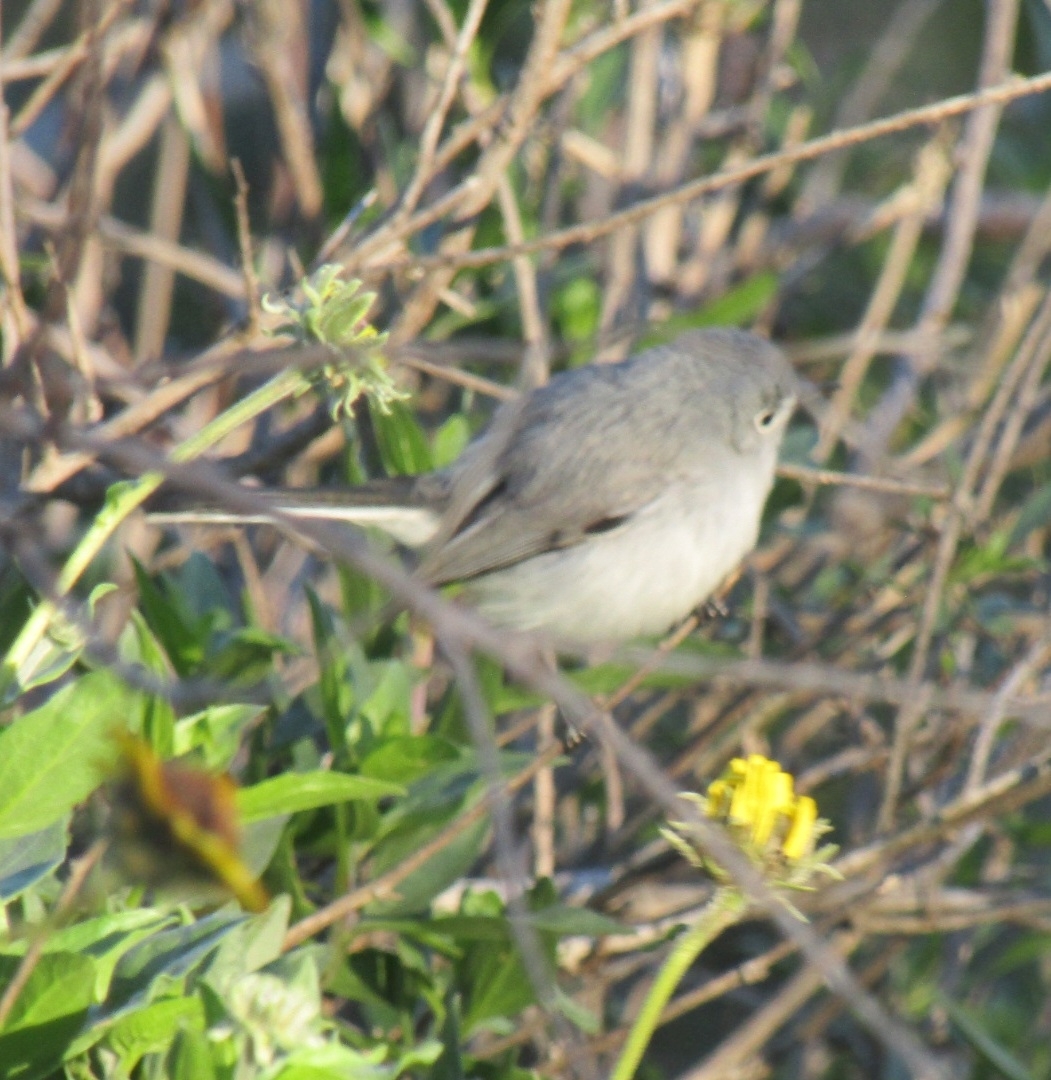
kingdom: Animalia
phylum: Chordata
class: Aves
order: Passeriformes
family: Polioptilidae
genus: Polioptila
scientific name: Polioptila caerulea
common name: Blue-gray gnatcatcher
